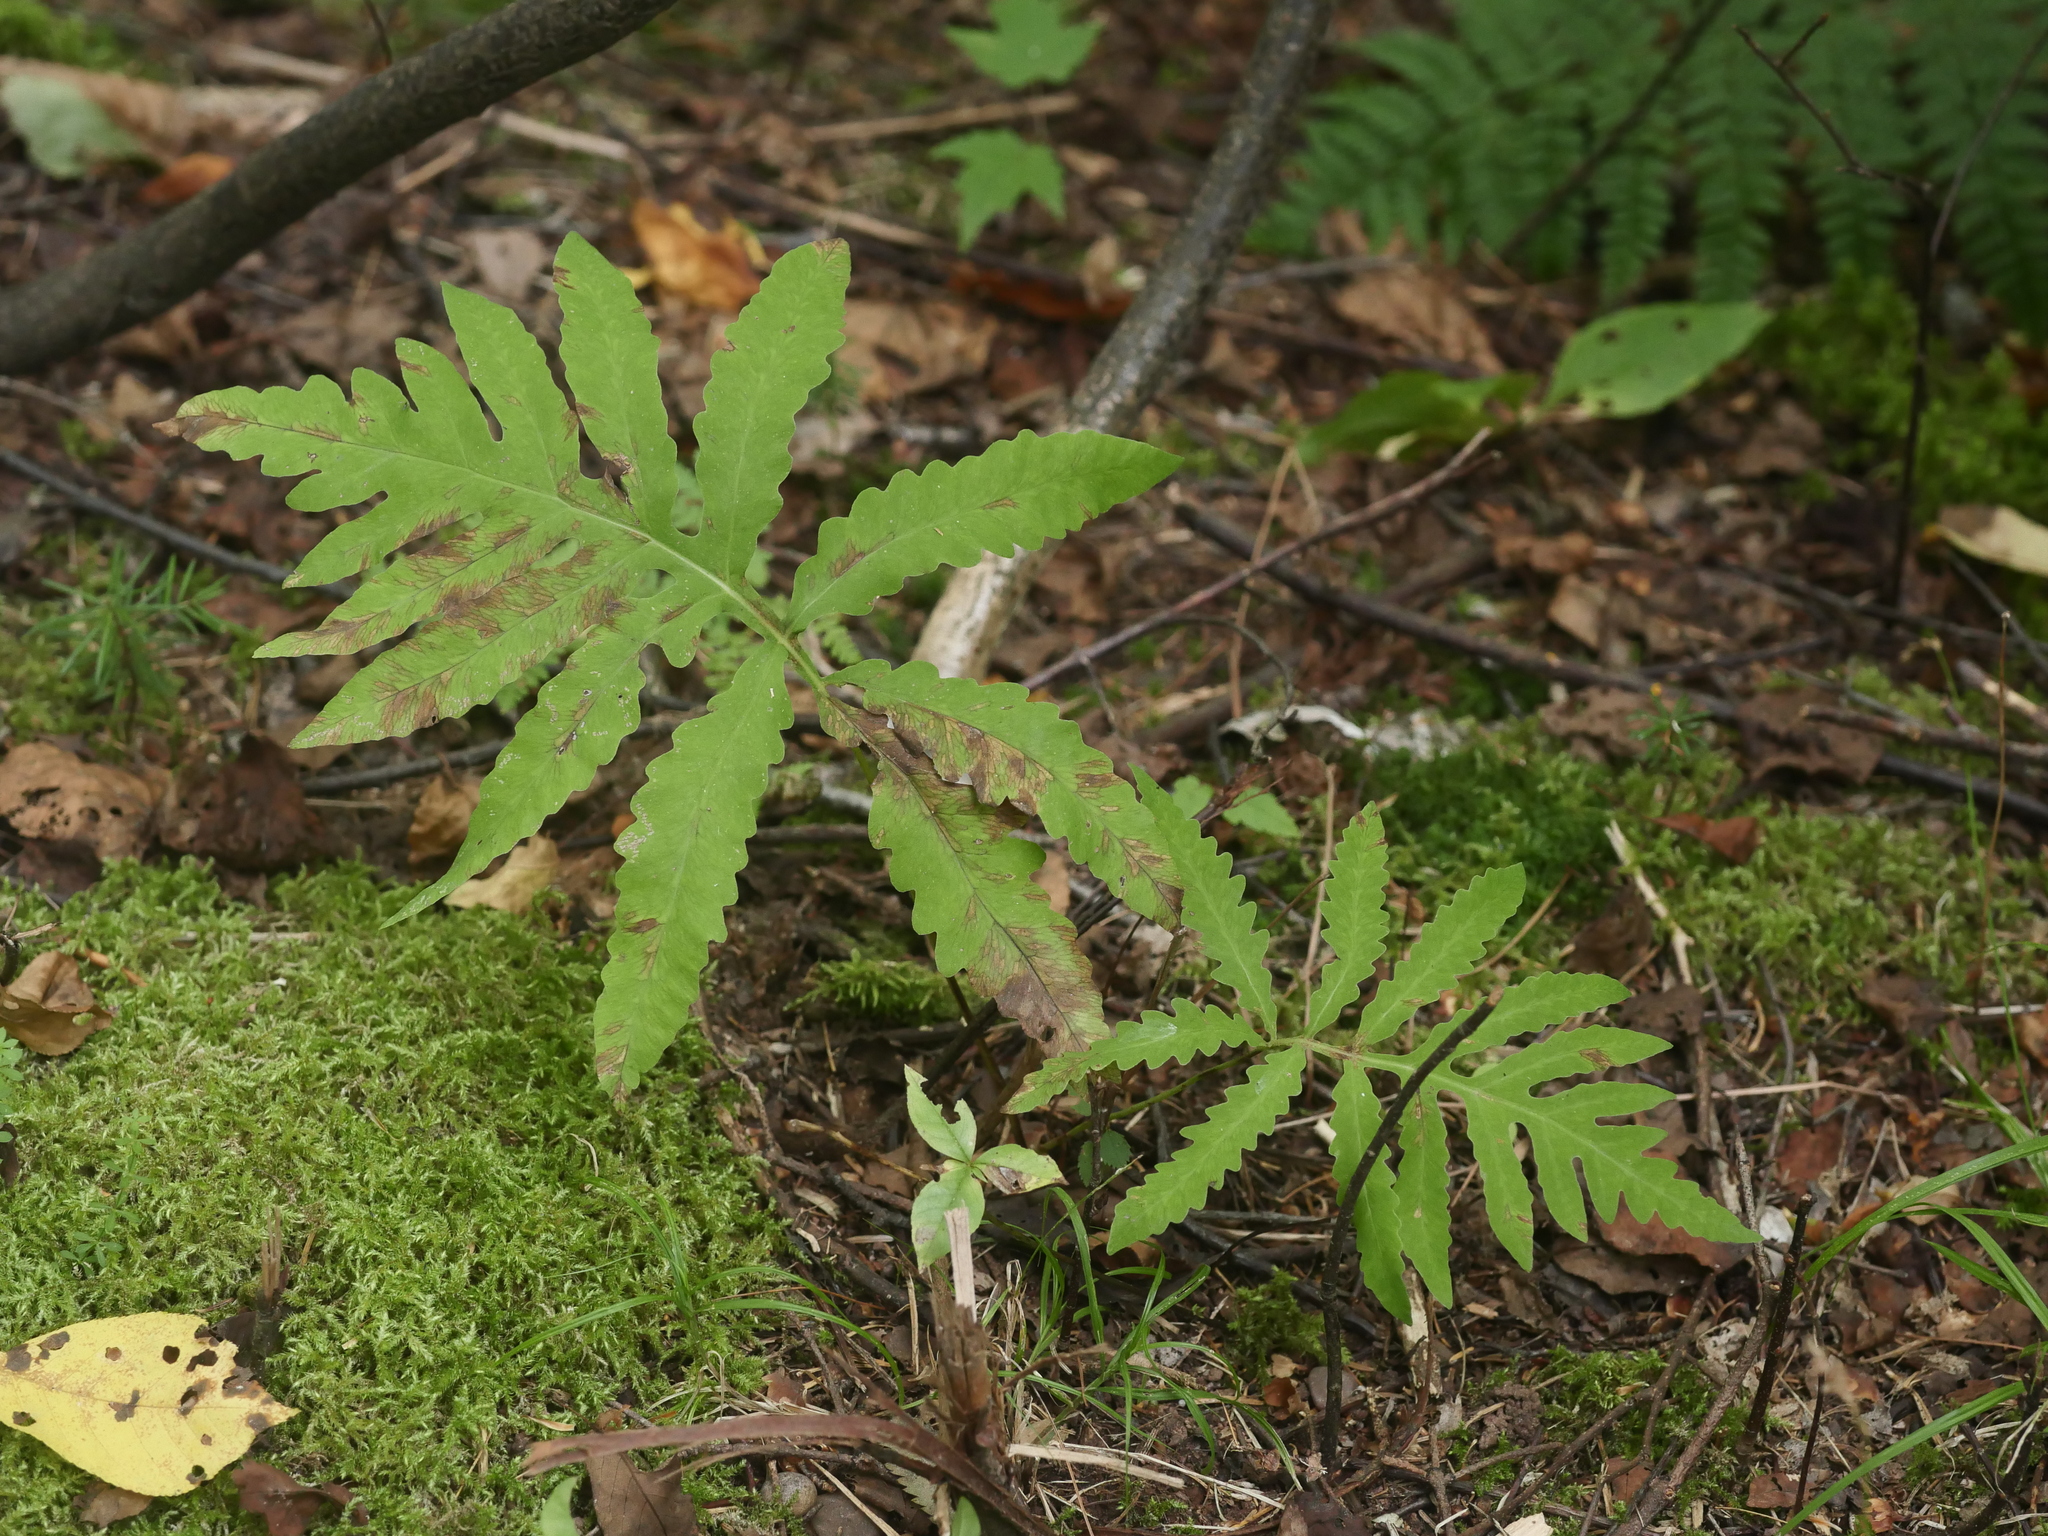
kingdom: Plantae
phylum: Tracheophyta
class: Polypodiopsida
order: Polypodiales
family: Onocleaceae
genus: Onoclea
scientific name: Onoclea sensibilis
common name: Sensitive fern
